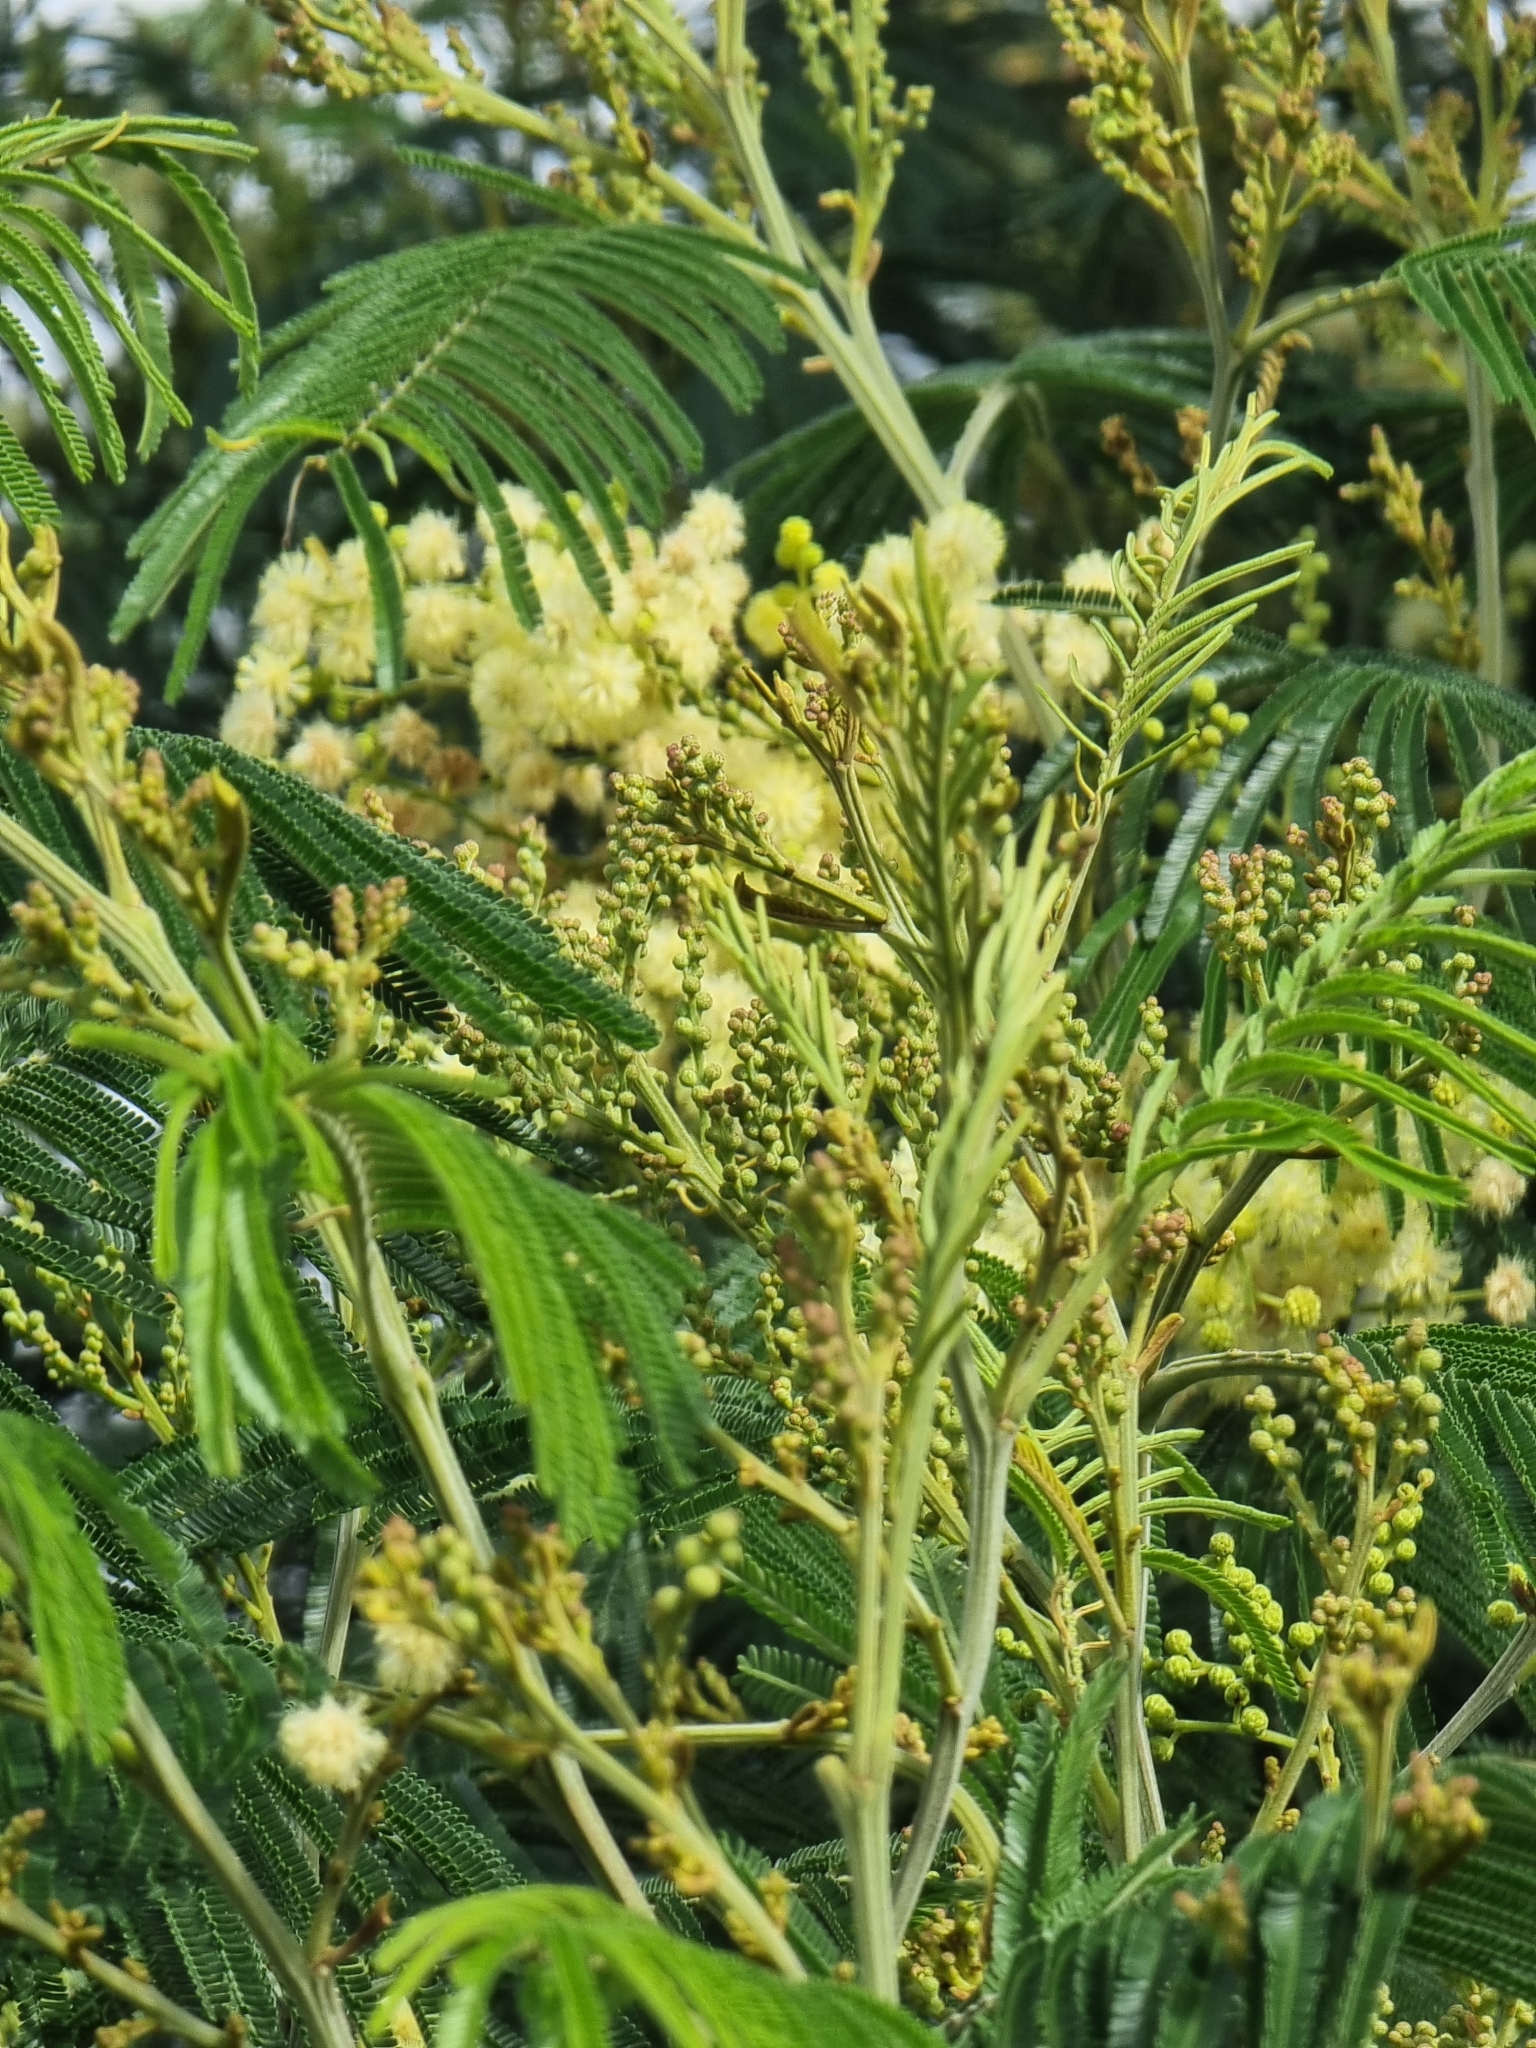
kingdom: Plantae
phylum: Tracheophyta
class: Magnoliopsida
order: Fabales
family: Fabaceae
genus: Acacia
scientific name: Acacia mearnsii
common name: Black wattle
